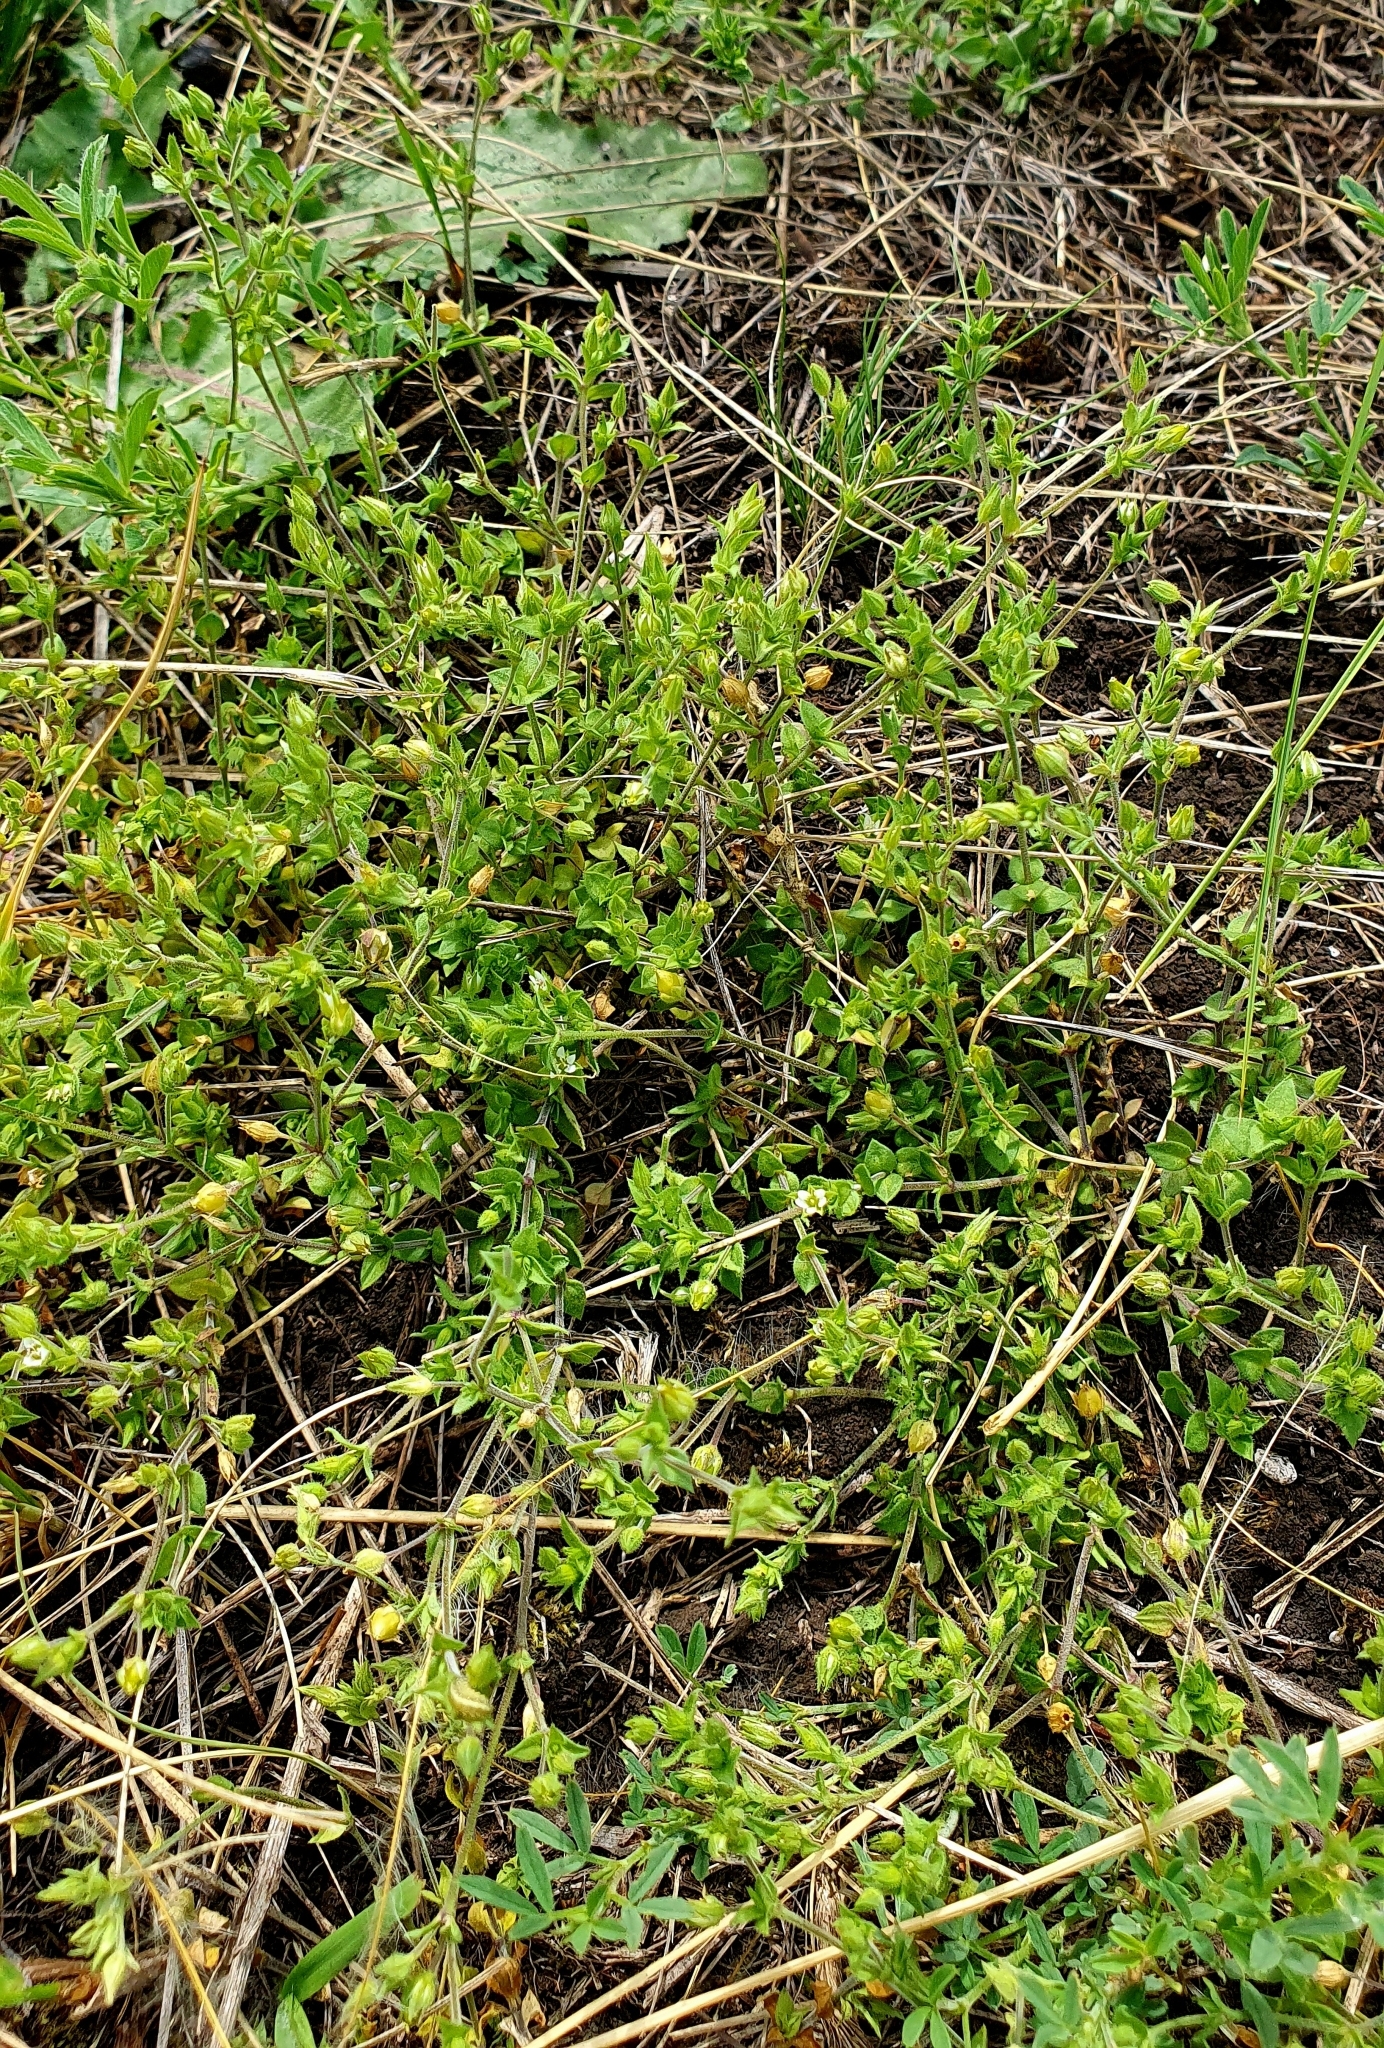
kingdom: Plantae
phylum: Tracheophyta
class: Magnoliopsida
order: Caryophyllales
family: Caryophyllaceae
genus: Arenaria
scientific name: Arenaria serpyllifolia
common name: Thyme-leaved sandwort
